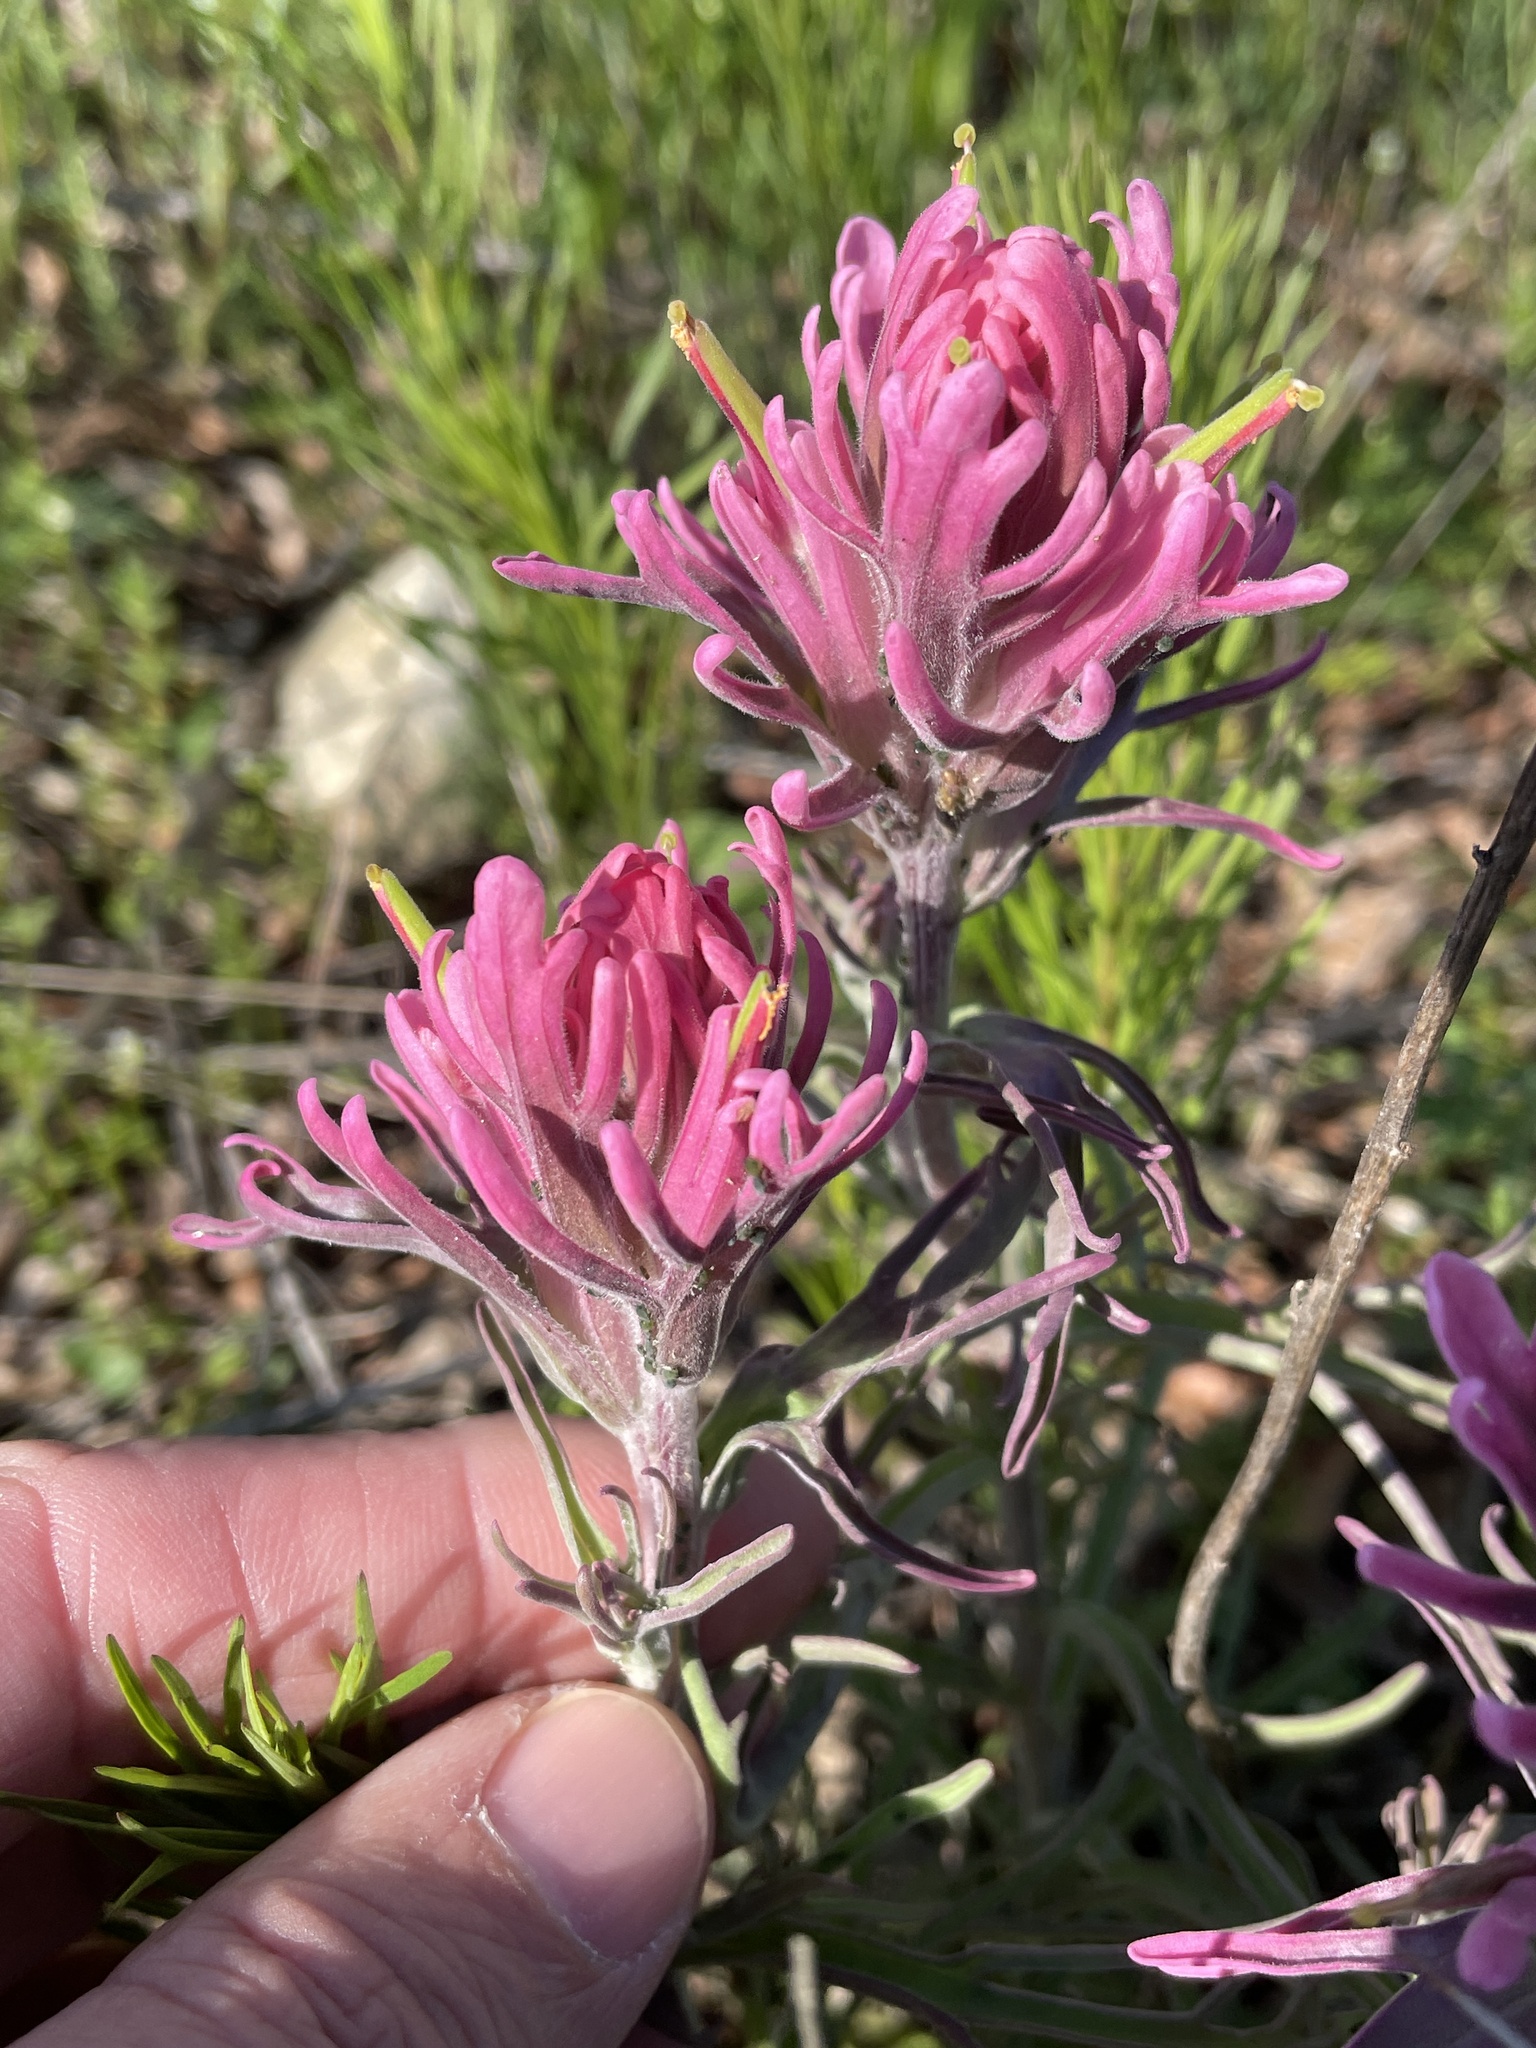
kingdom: Plantae
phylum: Tracheophyta
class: Magnoliopsida
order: Lamiales
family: Orobanchaceae
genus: Castilleja
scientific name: Castilleja purpurea
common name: Plains paintbrush
